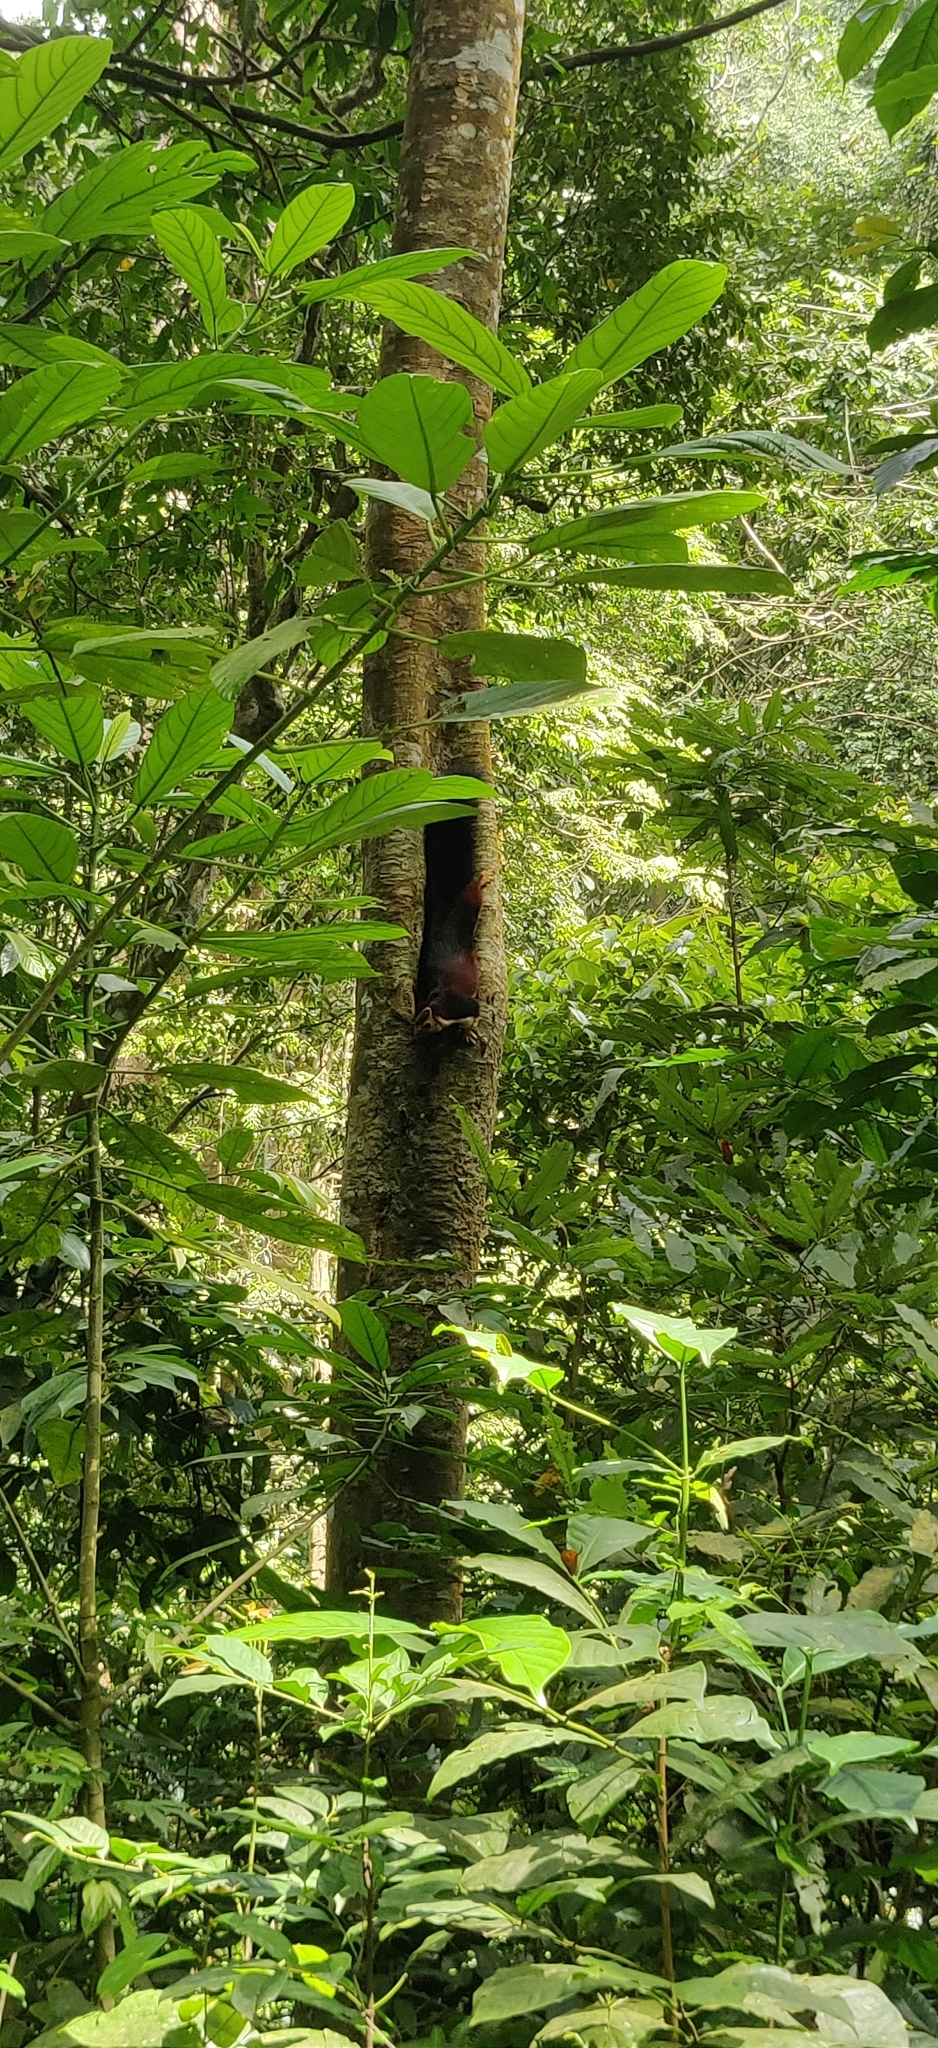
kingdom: Animalia
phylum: Chordata
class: Mammalia
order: Rodentia
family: Sciuridae
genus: Ratufa
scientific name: Ratufa indica
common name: Indian giant squirrel
